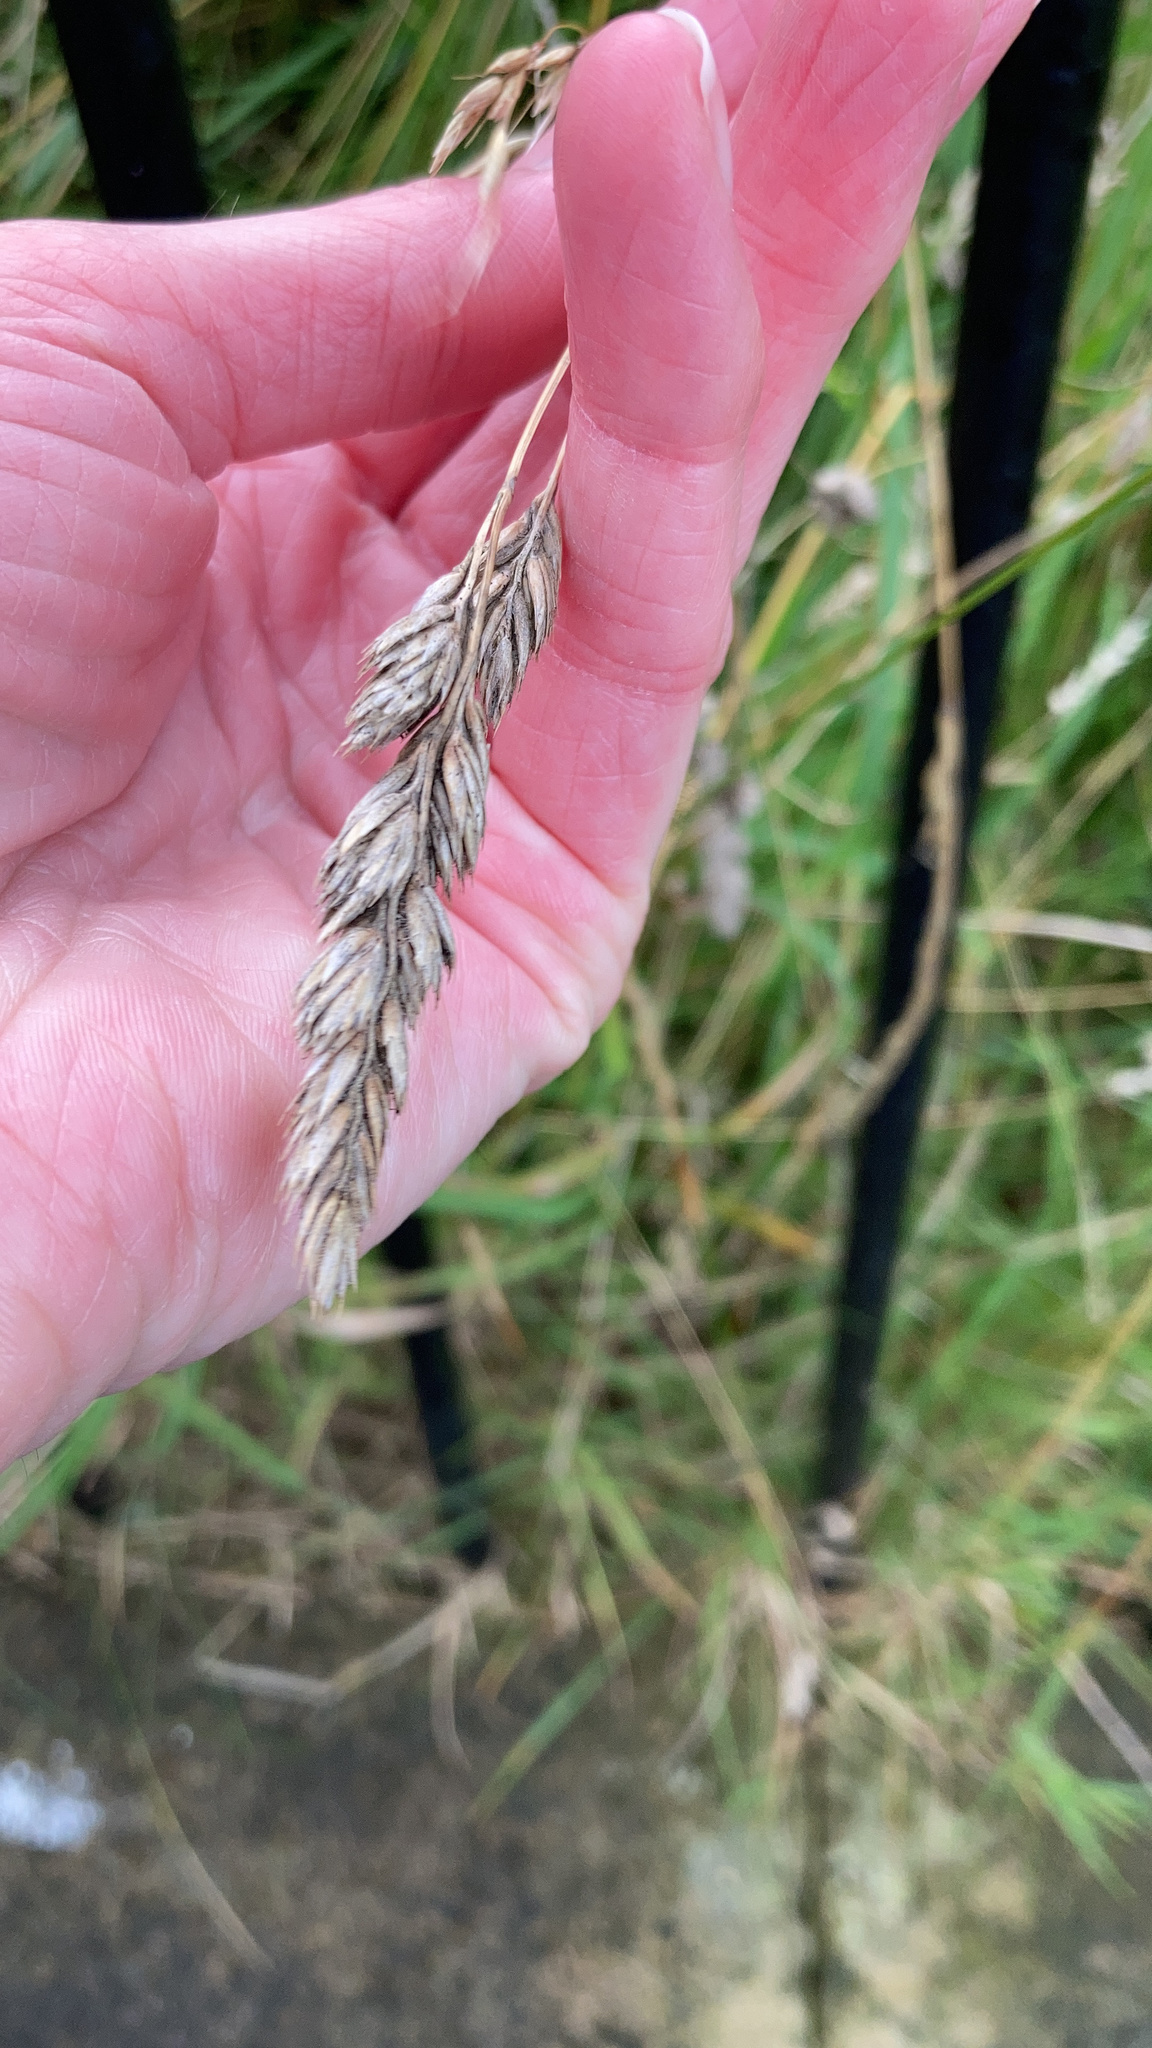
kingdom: Plantae
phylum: Tracheophyta
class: Liliopsida
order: Poales
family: Poaceae
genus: Dactylis
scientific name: Dactylis glomerata
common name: Orchardgrass
